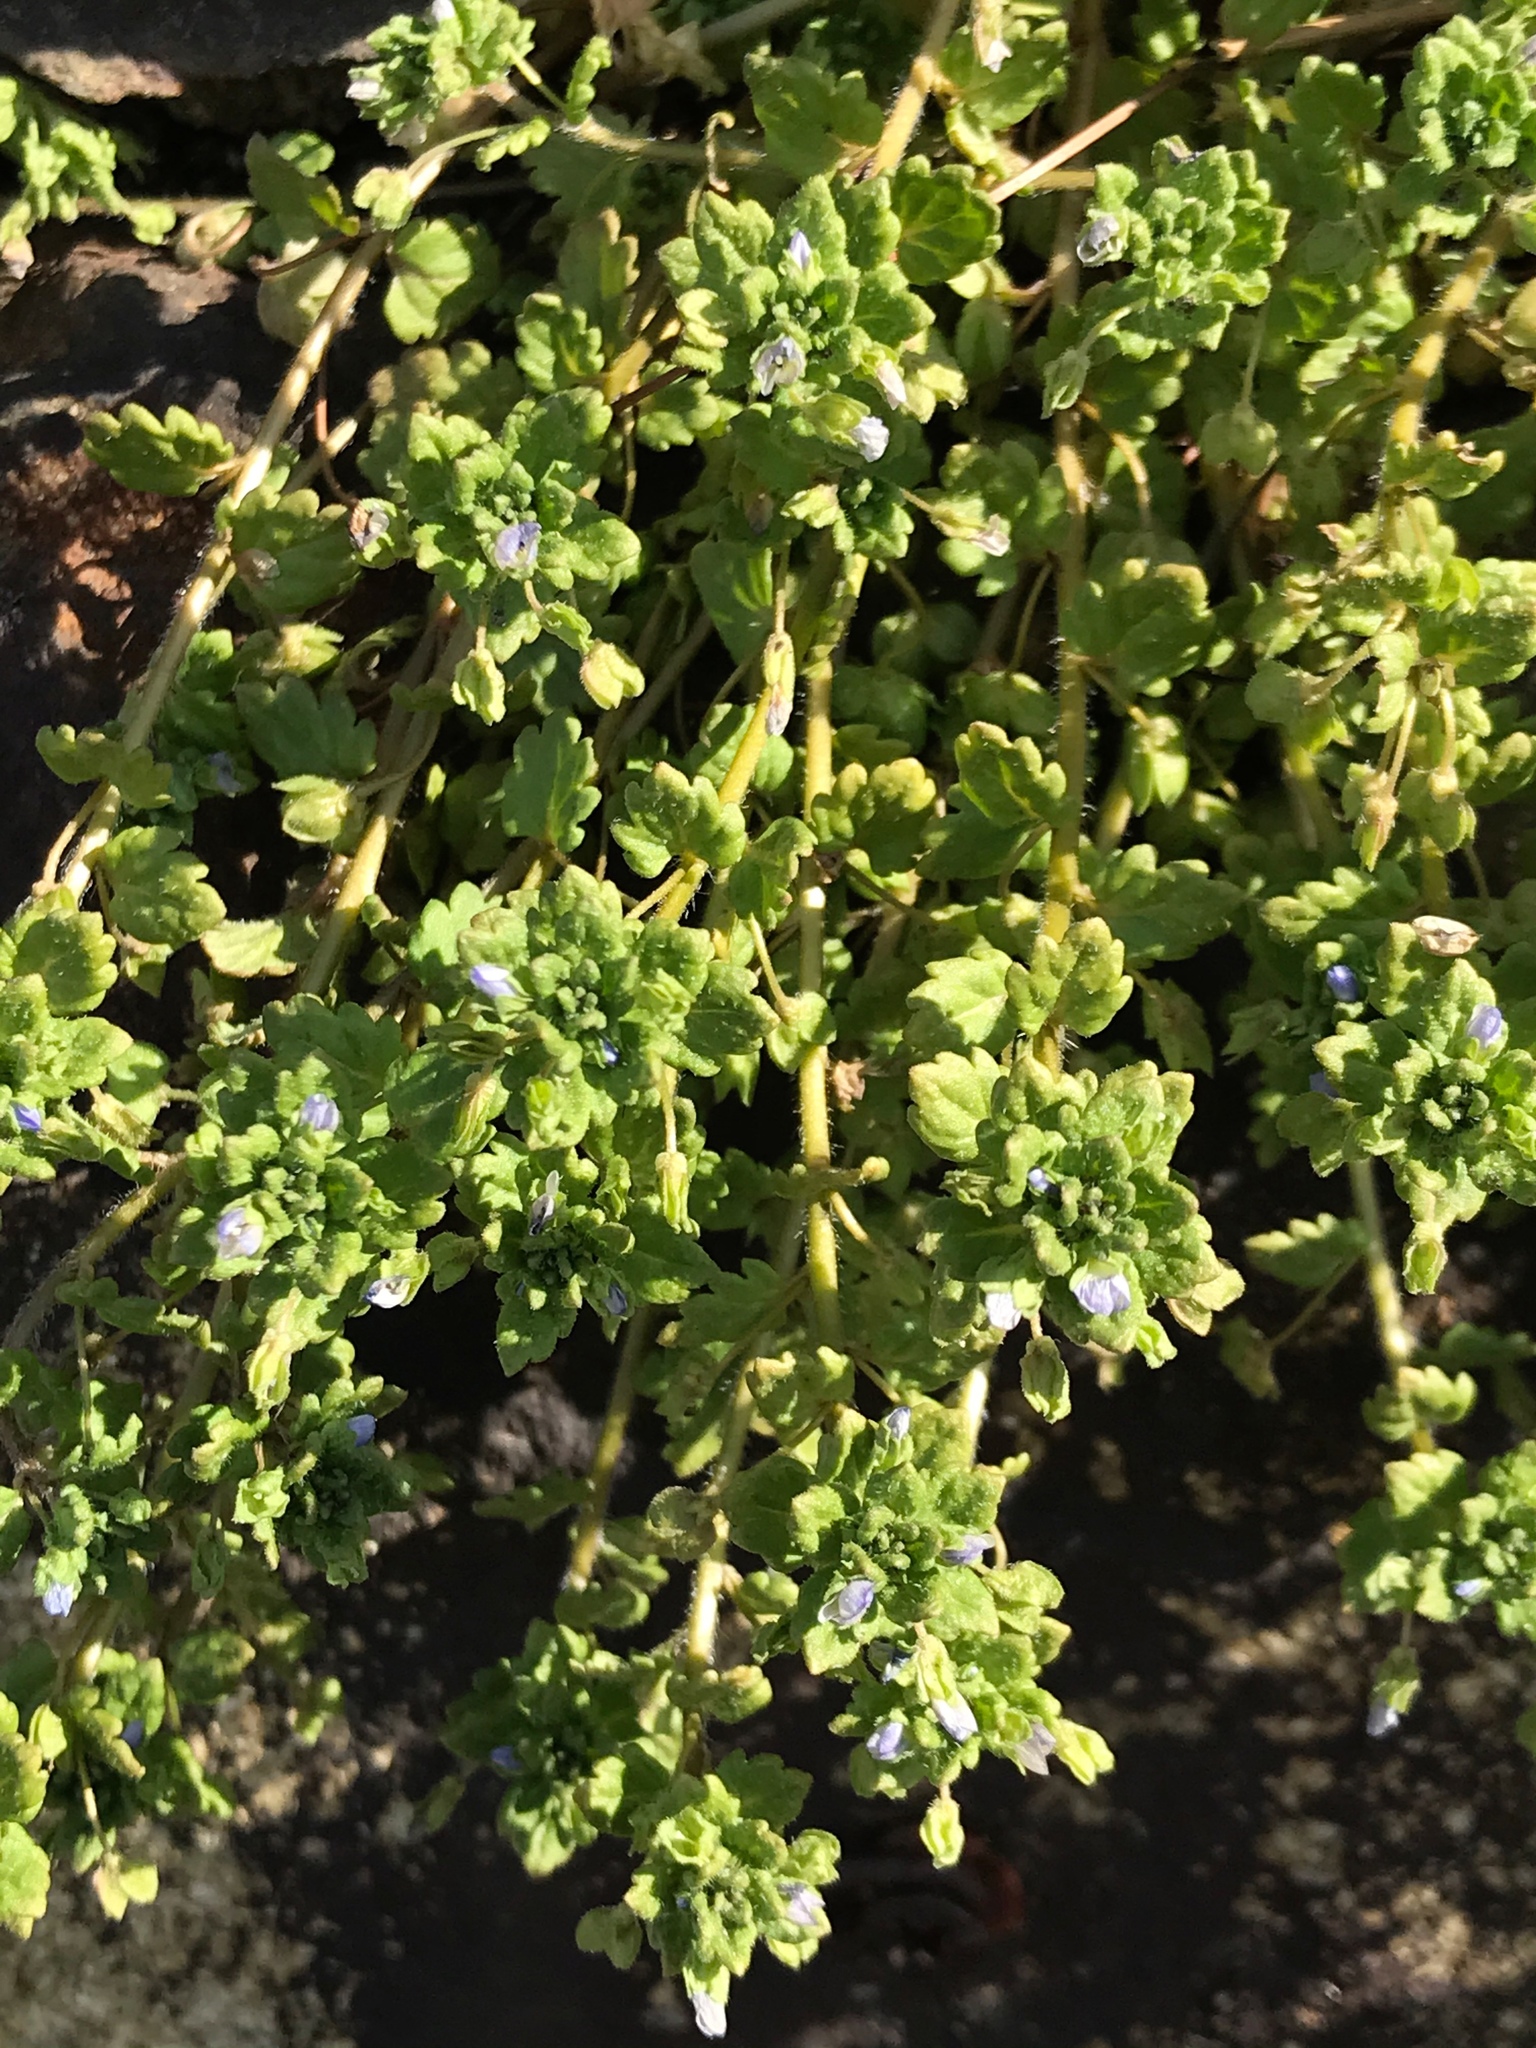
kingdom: Plantae
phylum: Tracheophyta
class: Magnoliopsida
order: Lamiales
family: Plantaginaceae
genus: Veronica
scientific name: Veronica polita
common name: Grey field-speedwell
